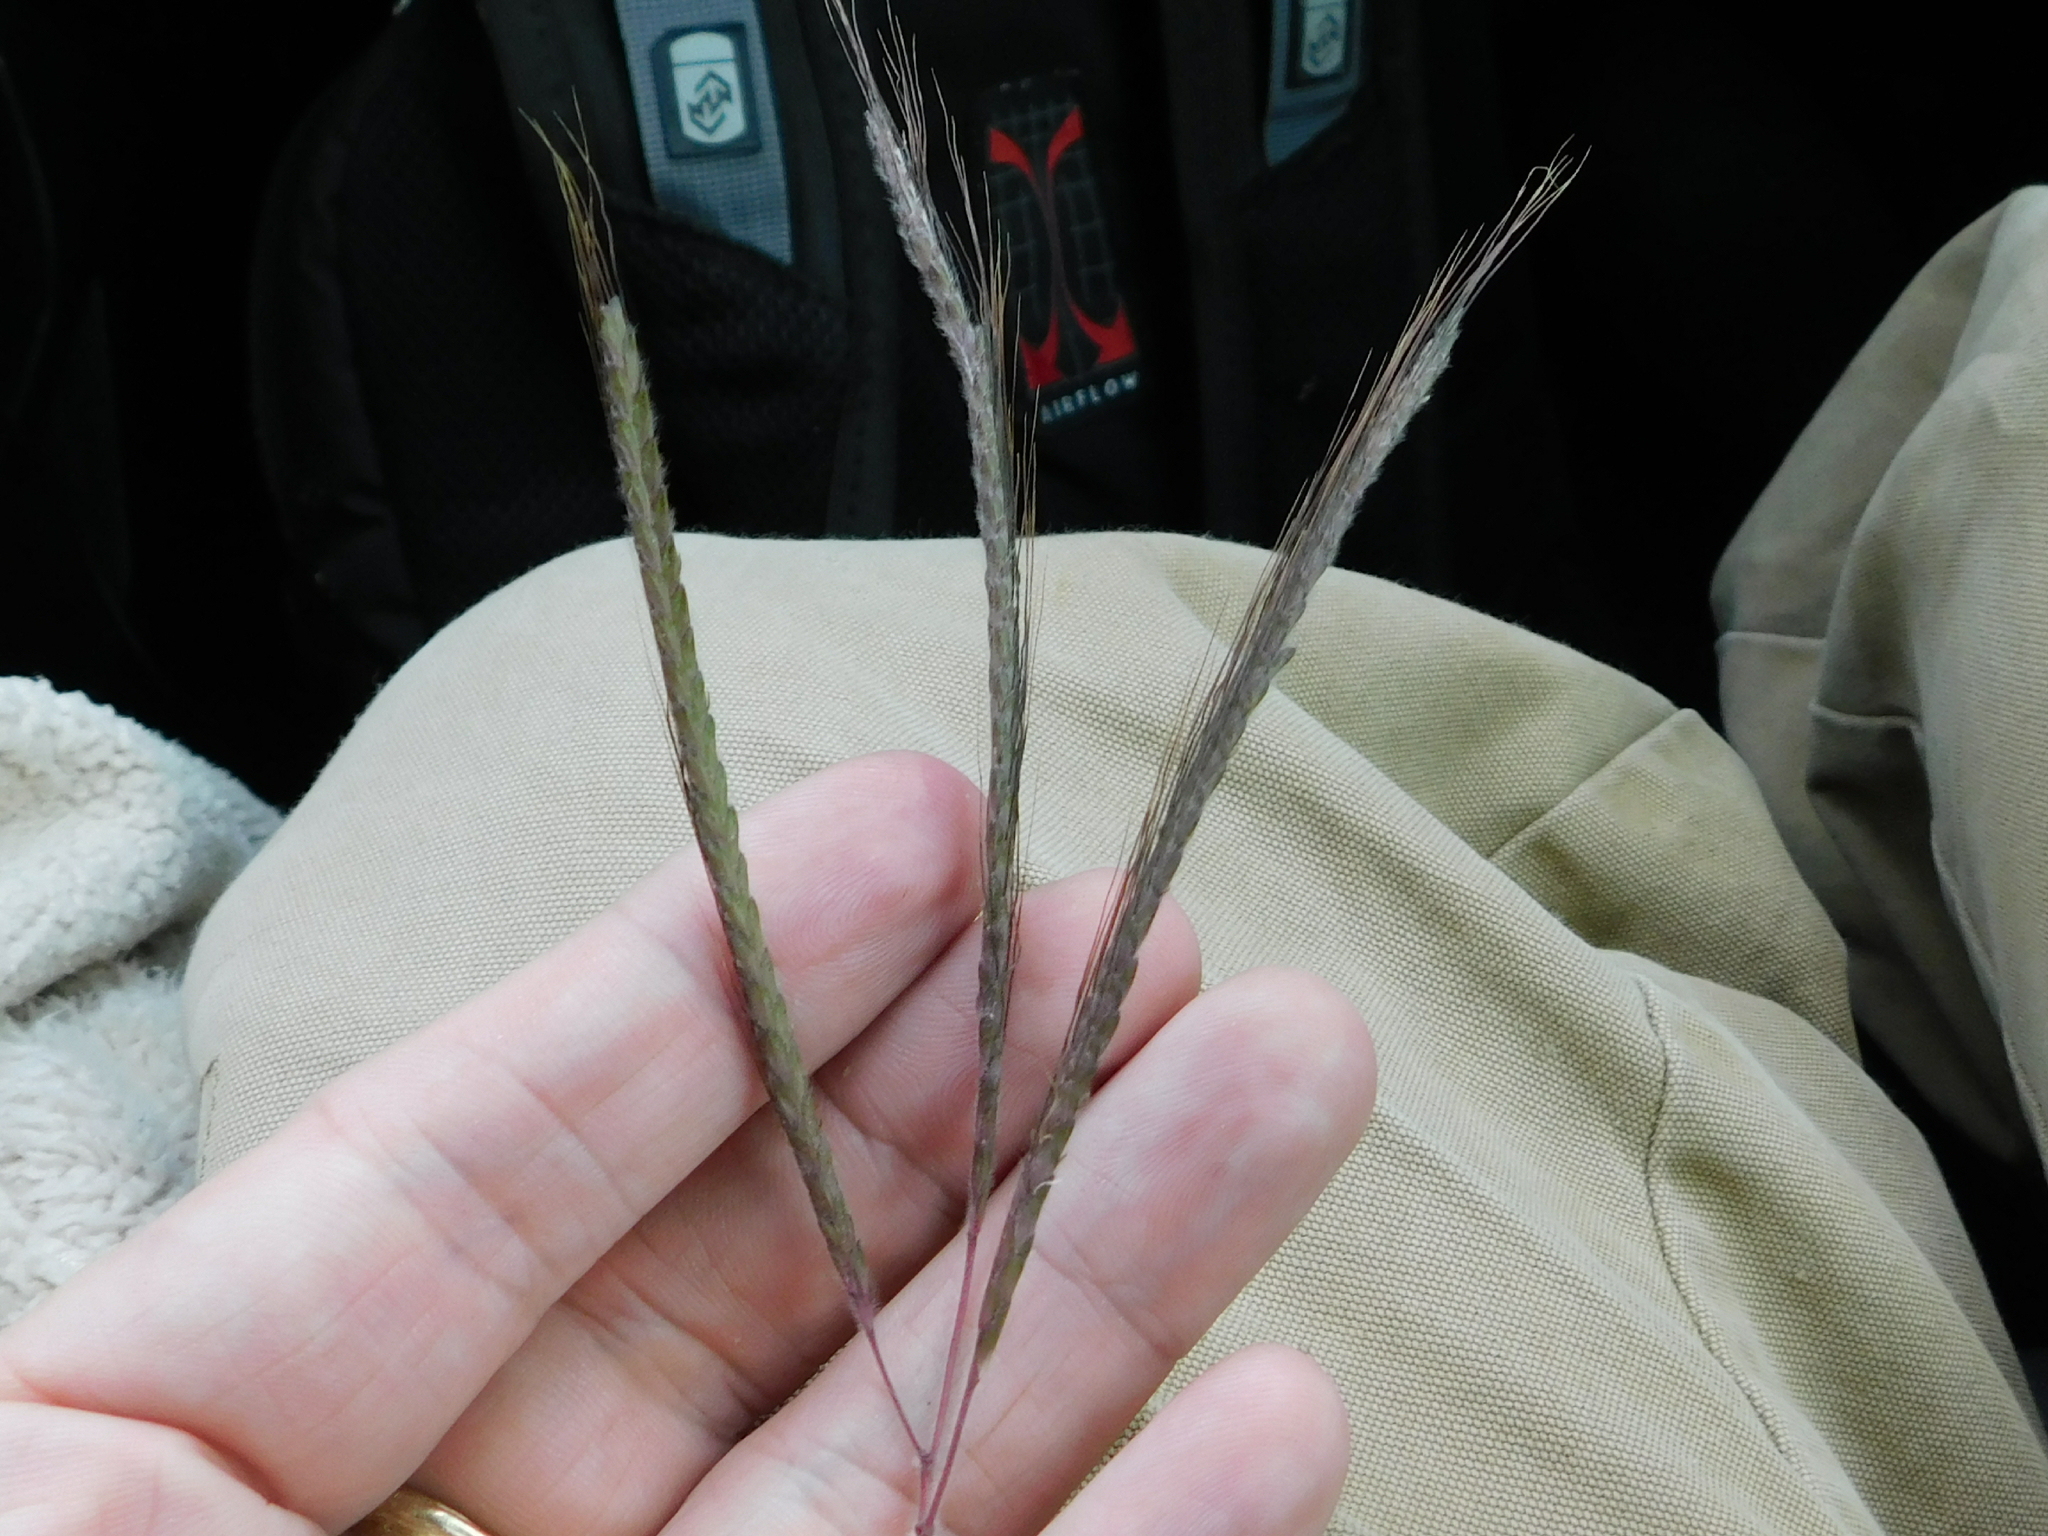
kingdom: Plantae
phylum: Tracheophyta
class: Liliopsida
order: Poales
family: Poaceae
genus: Dichanthium
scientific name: Dichanthium aristatum
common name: Angleton bluestem
